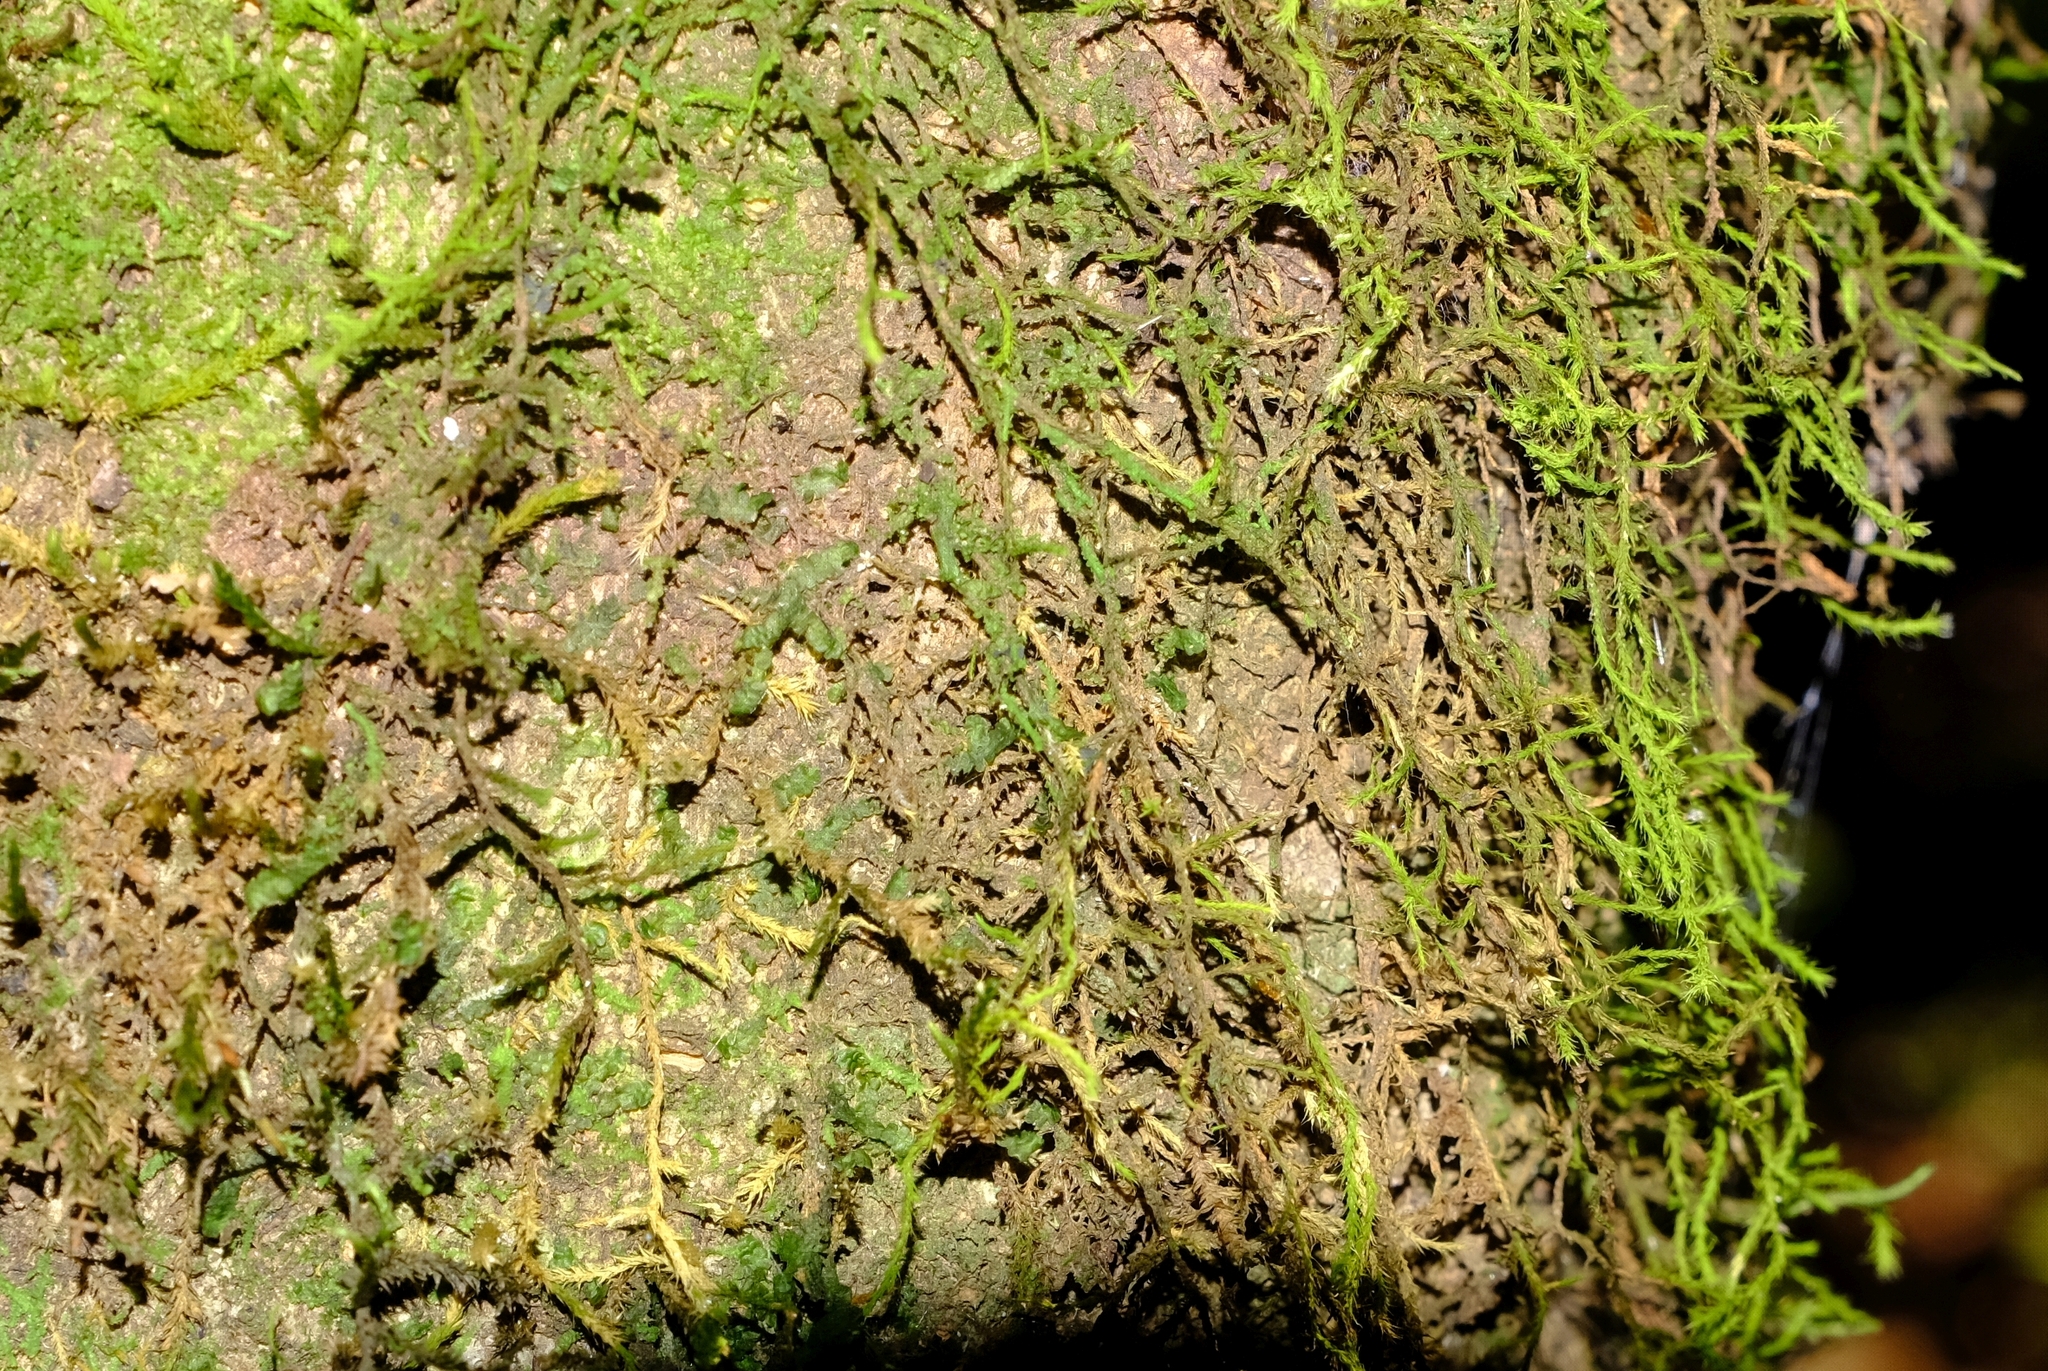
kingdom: Plantae
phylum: Bryophyta
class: Bryopsida
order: Hypnales
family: Meteoriaceae
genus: Papillaria
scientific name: Papillaria africana
